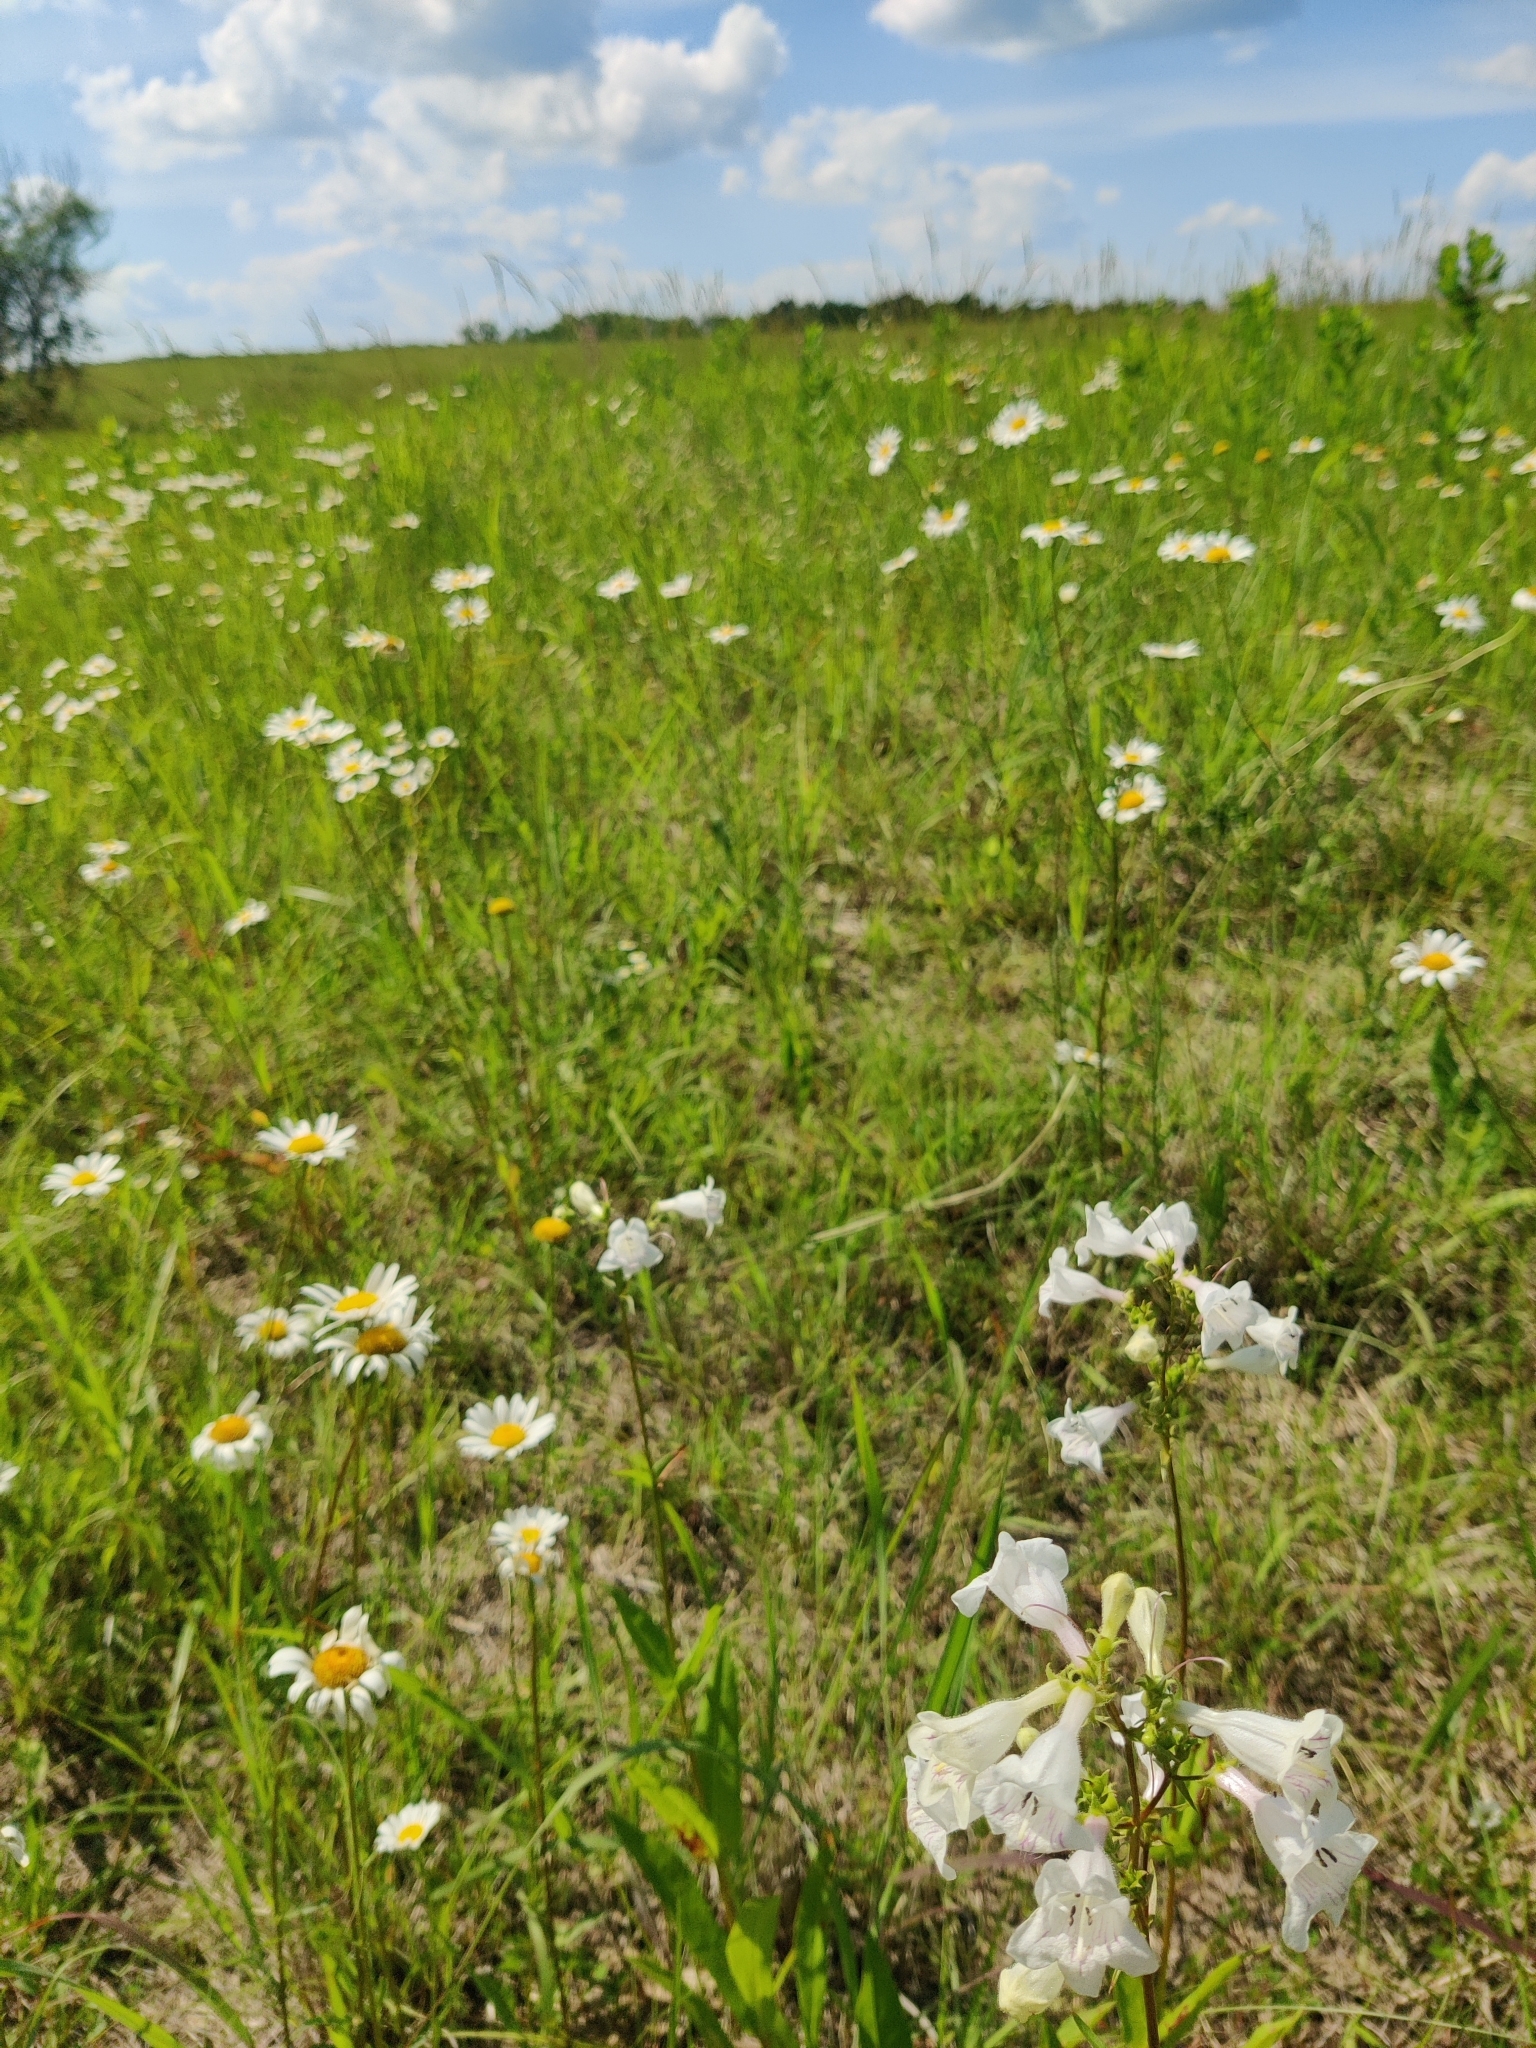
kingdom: Plantae
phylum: Tracheophyta
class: Magnoliopsida
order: Asterales
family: Asteraceae
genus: Leucanthemum
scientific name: Leucanthemum vulgare
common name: Oxeye daisy
